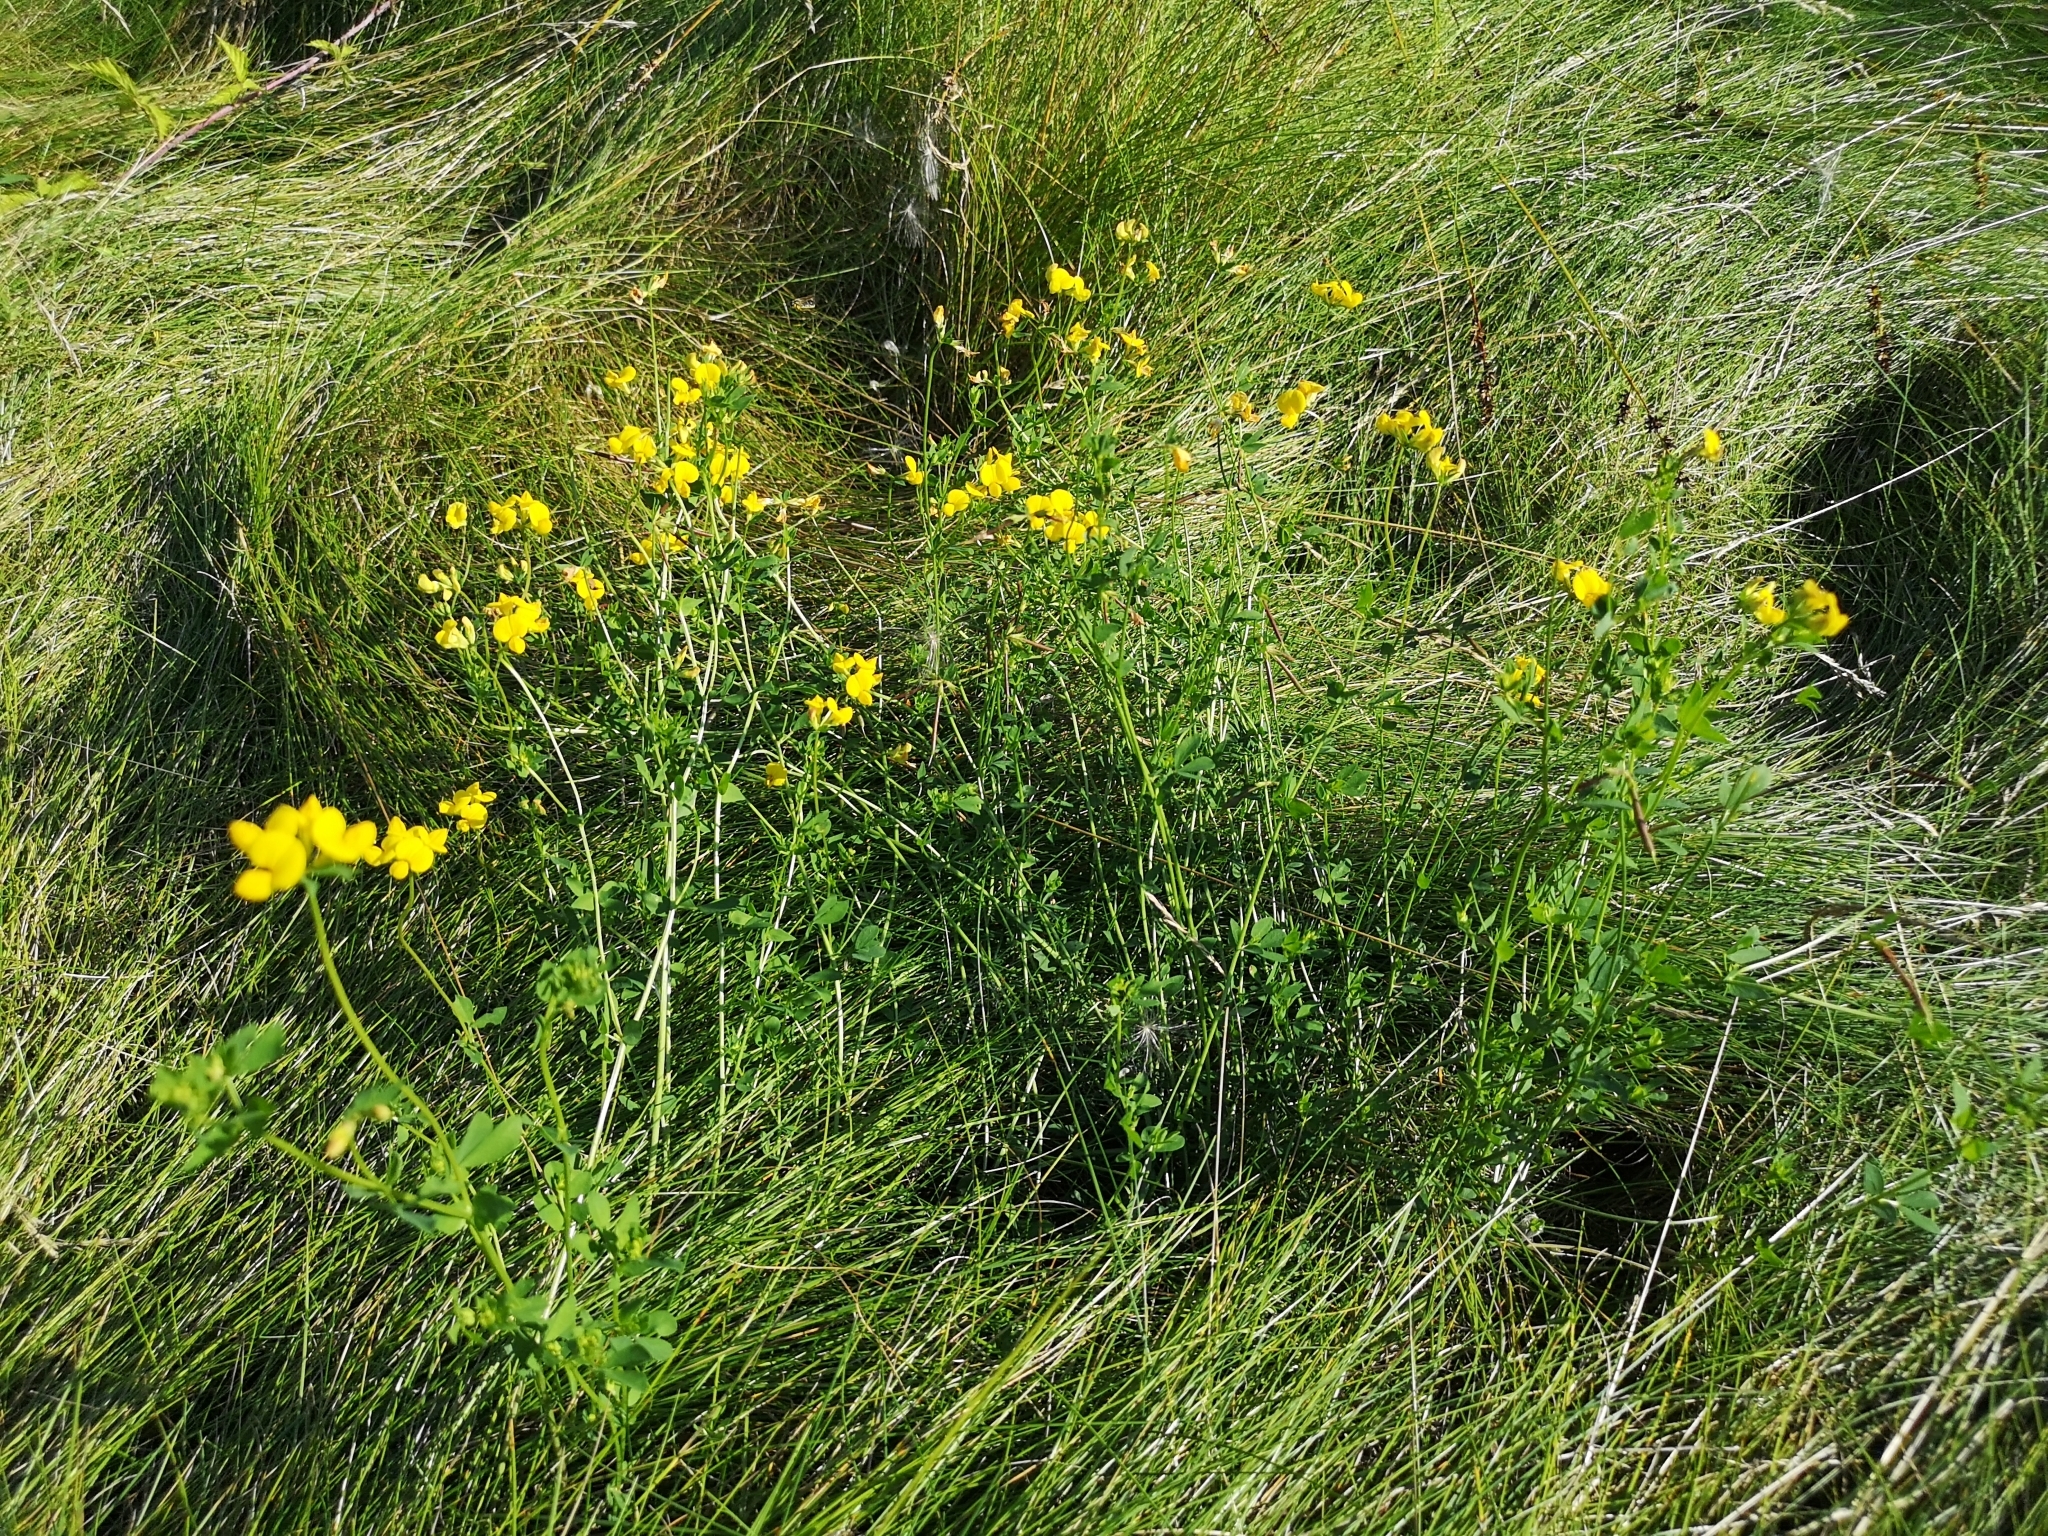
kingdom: Plantae
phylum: Tracheophyta
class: Magnoliopsida
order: Fabales
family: Fabaceae
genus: Lotus
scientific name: Lotus corniculatus
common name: Common bird's-foot-trefoil
